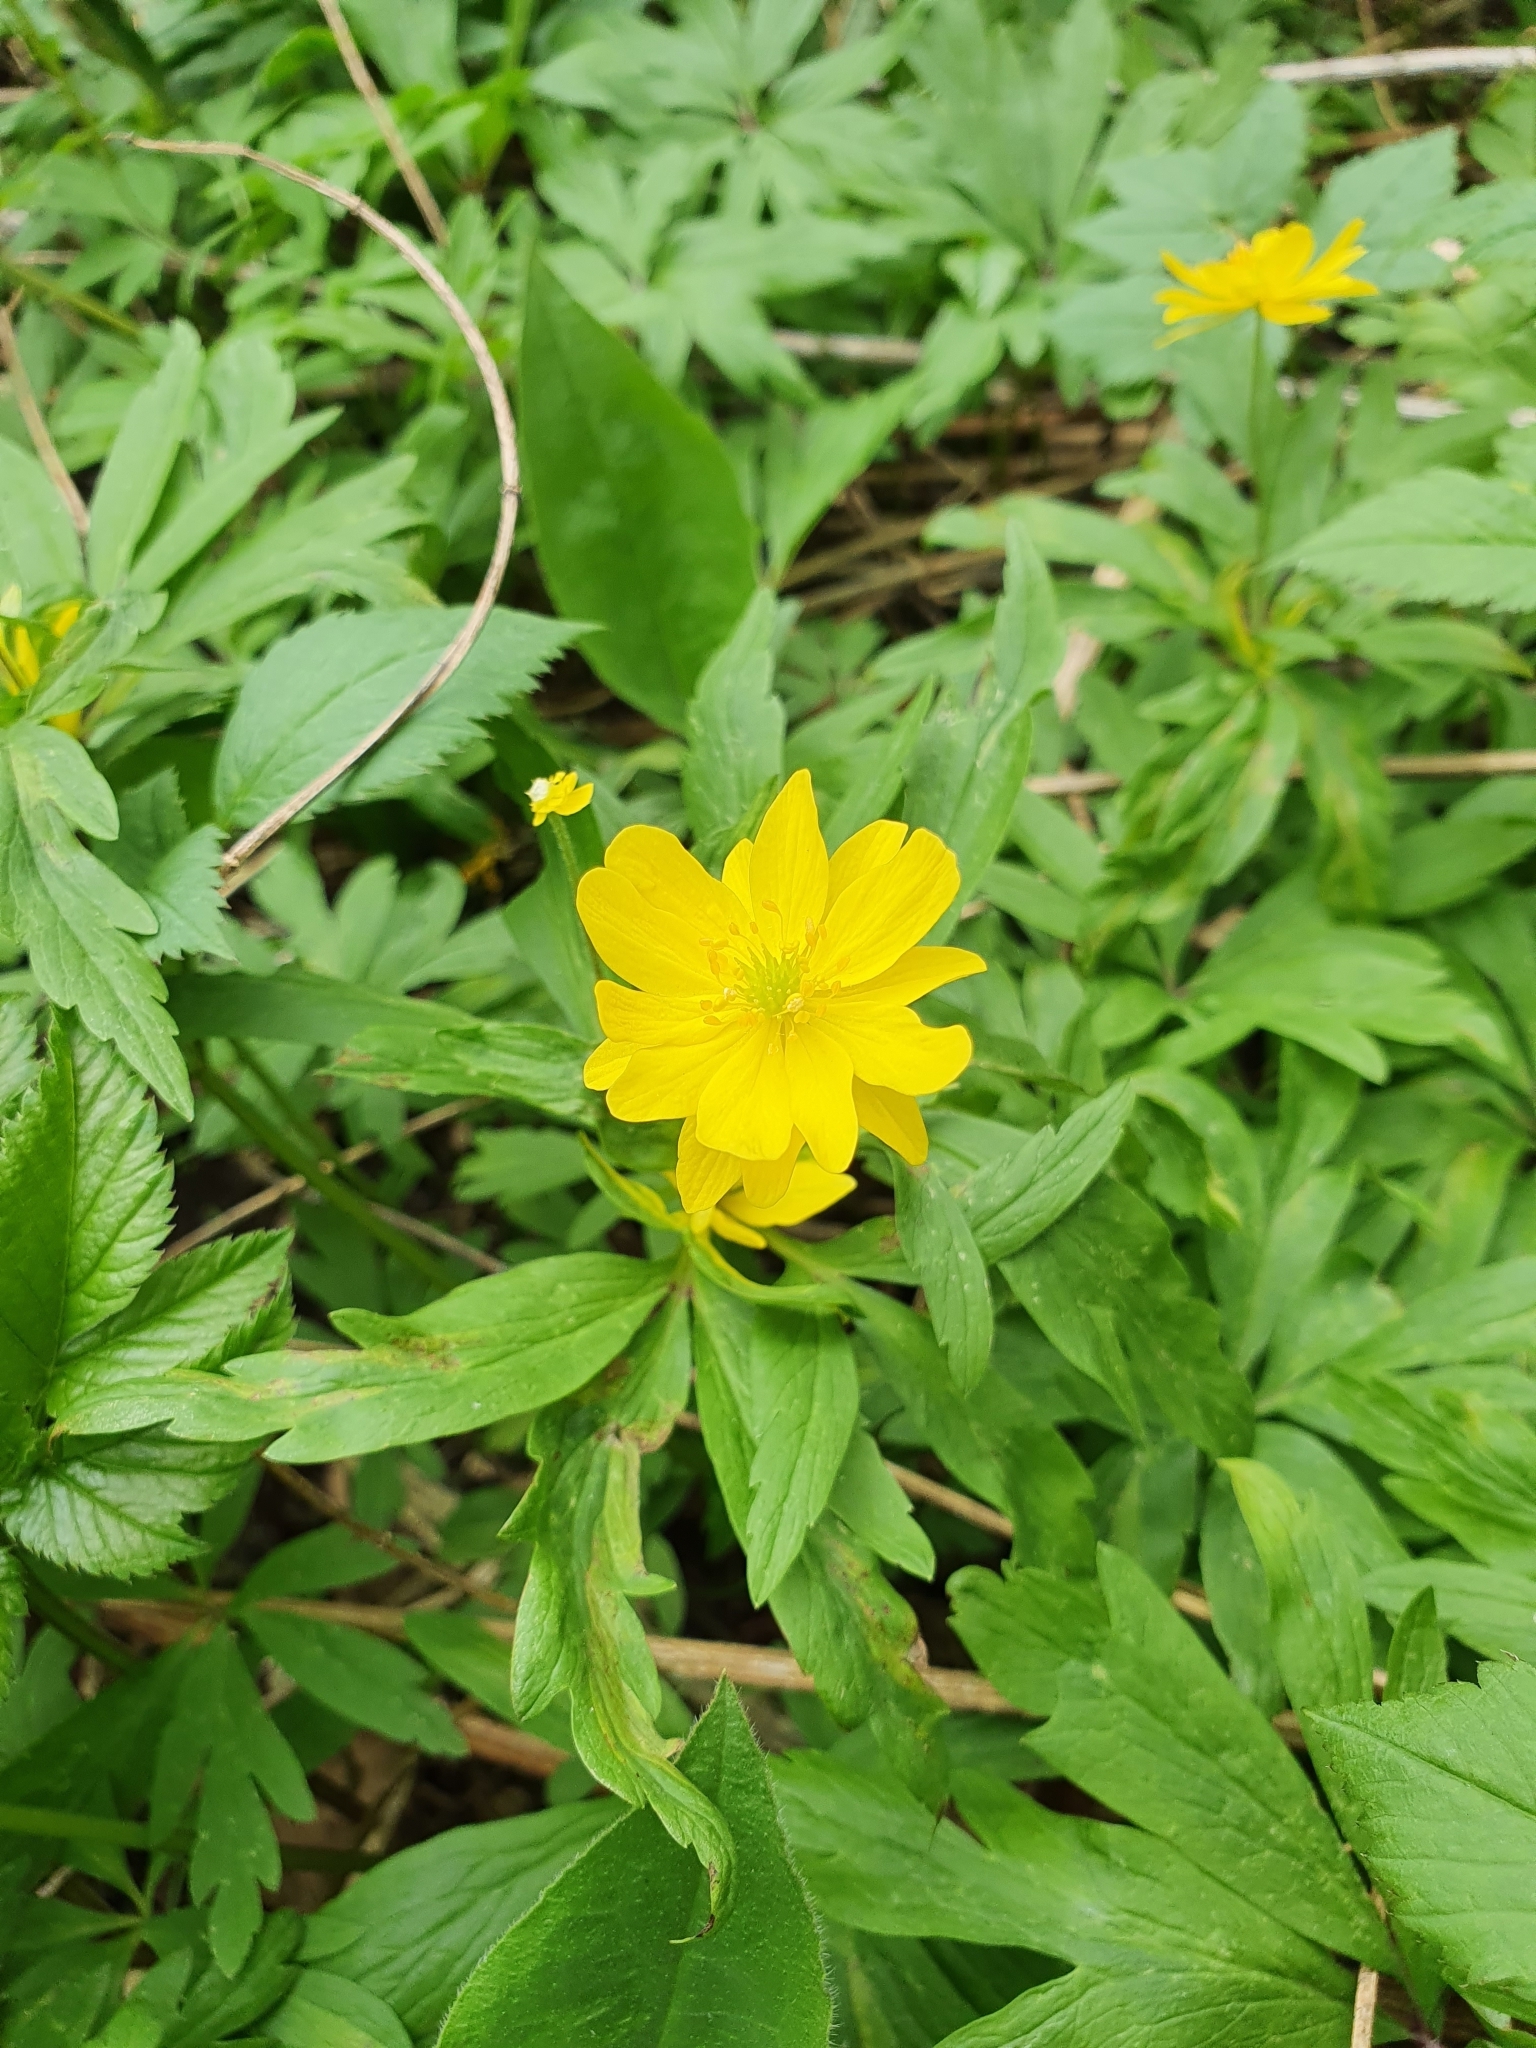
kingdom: Plantae
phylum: Tracheophyta
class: Magnoliopsida
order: Ranunculales
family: Ranunculaceae
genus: Anemone
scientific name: Anemone ranunculoides
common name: Yellow anemone
